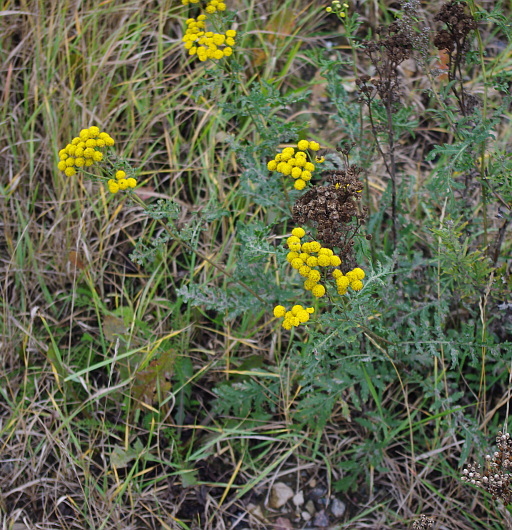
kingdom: Plantae
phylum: Tracheophyta
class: Magnoliopsida
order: Asterales
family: Asteraceae
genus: Tanacetum
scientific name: Tanacetum vulgare
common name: Common tansy
